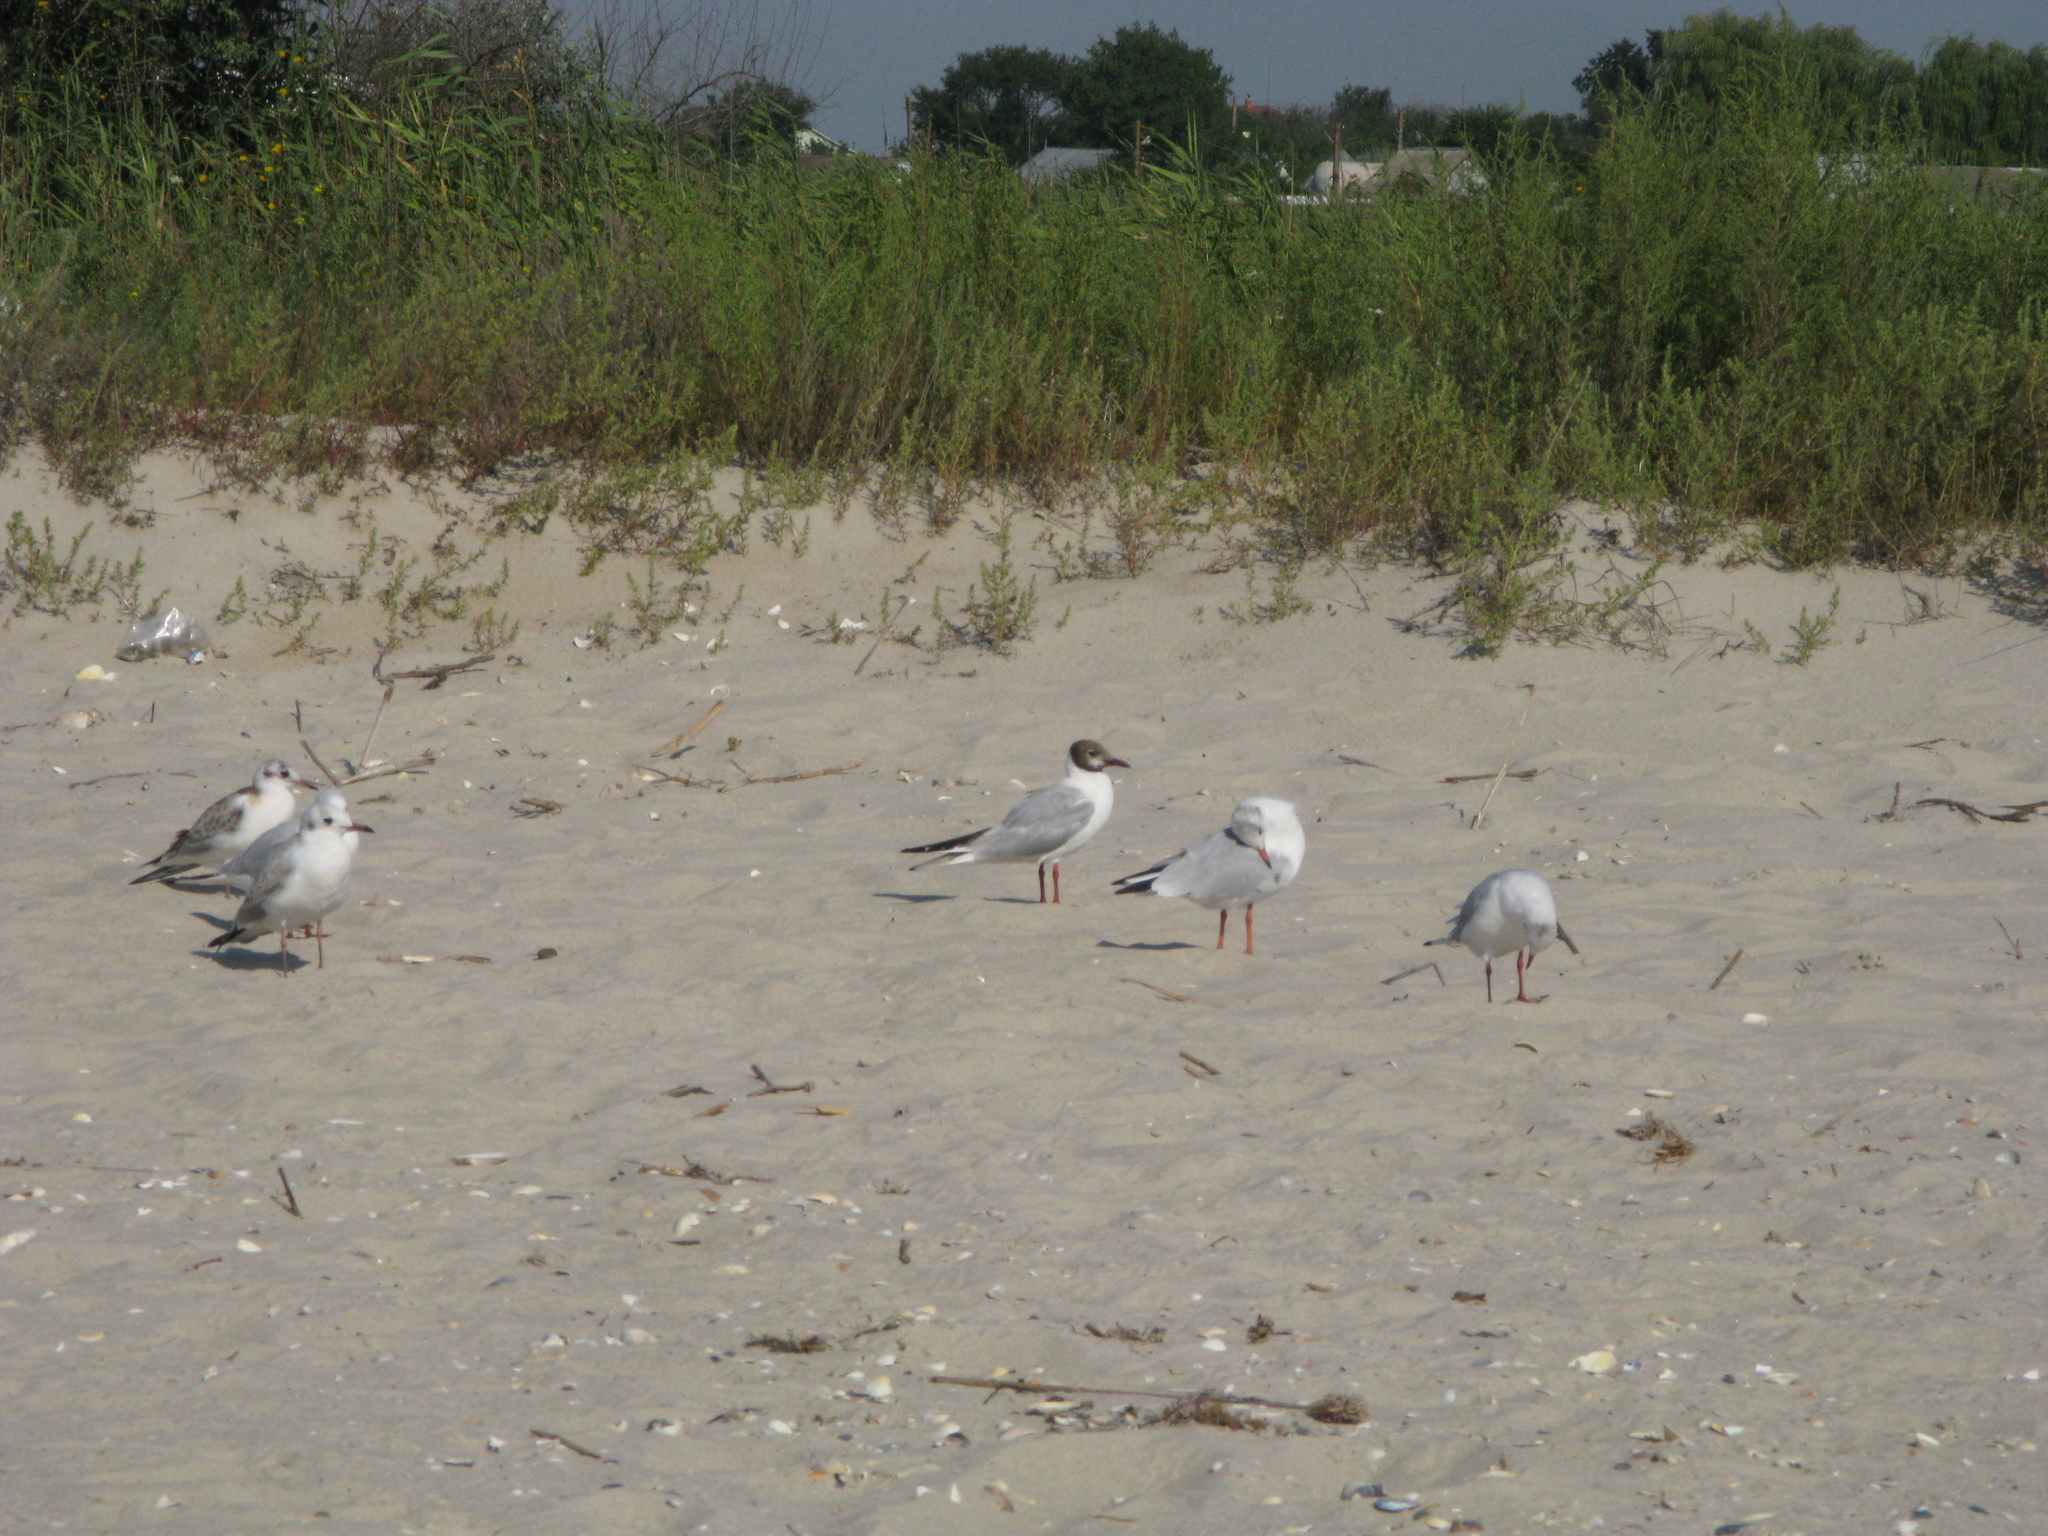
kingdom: Animalia
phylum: Chordata
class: Aves
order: Charadriiformes
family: Laridae
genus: Chroicocephalus
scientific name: Chroicocephalus ridibundus
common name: Black-headed gull
